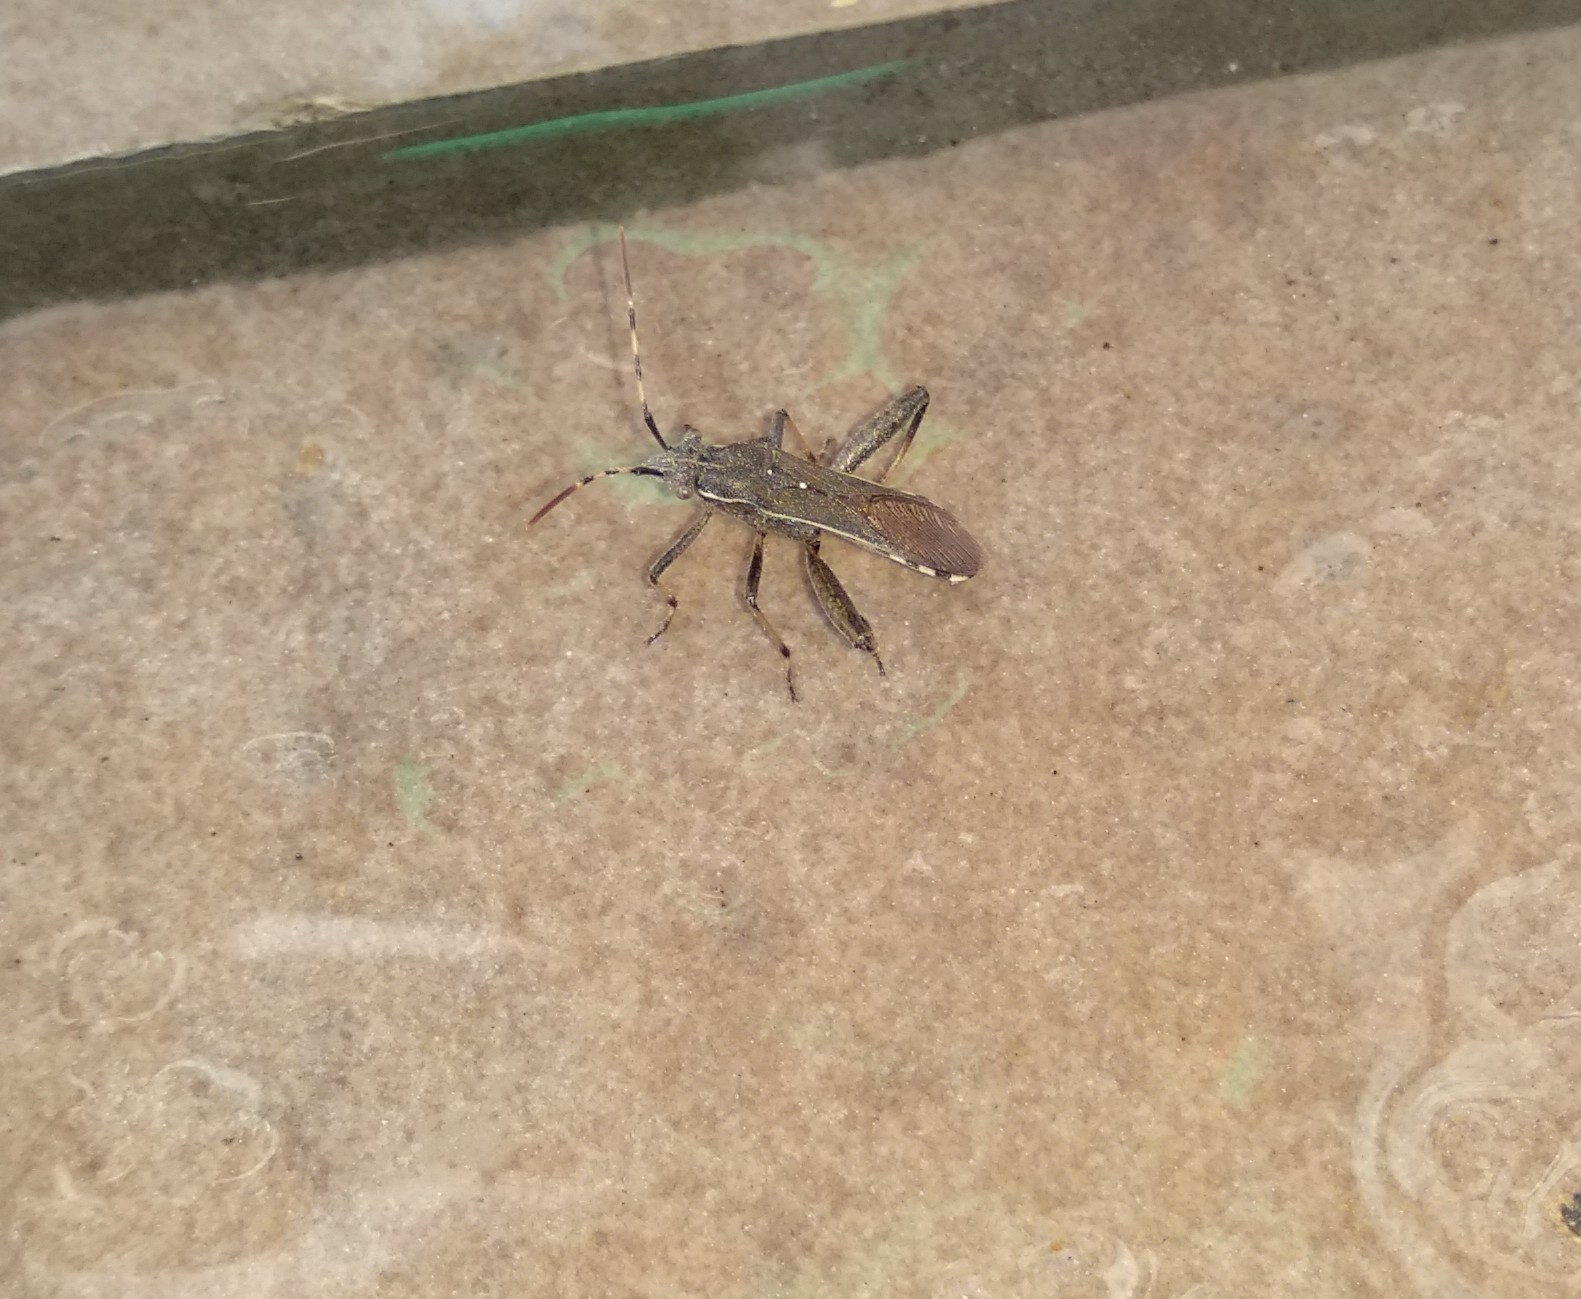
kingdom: Animalia
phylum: Arthropoda
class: Insecta
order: Hemiptera
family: Alydidae
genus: Camptopus
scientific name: Camptopus lateralis
